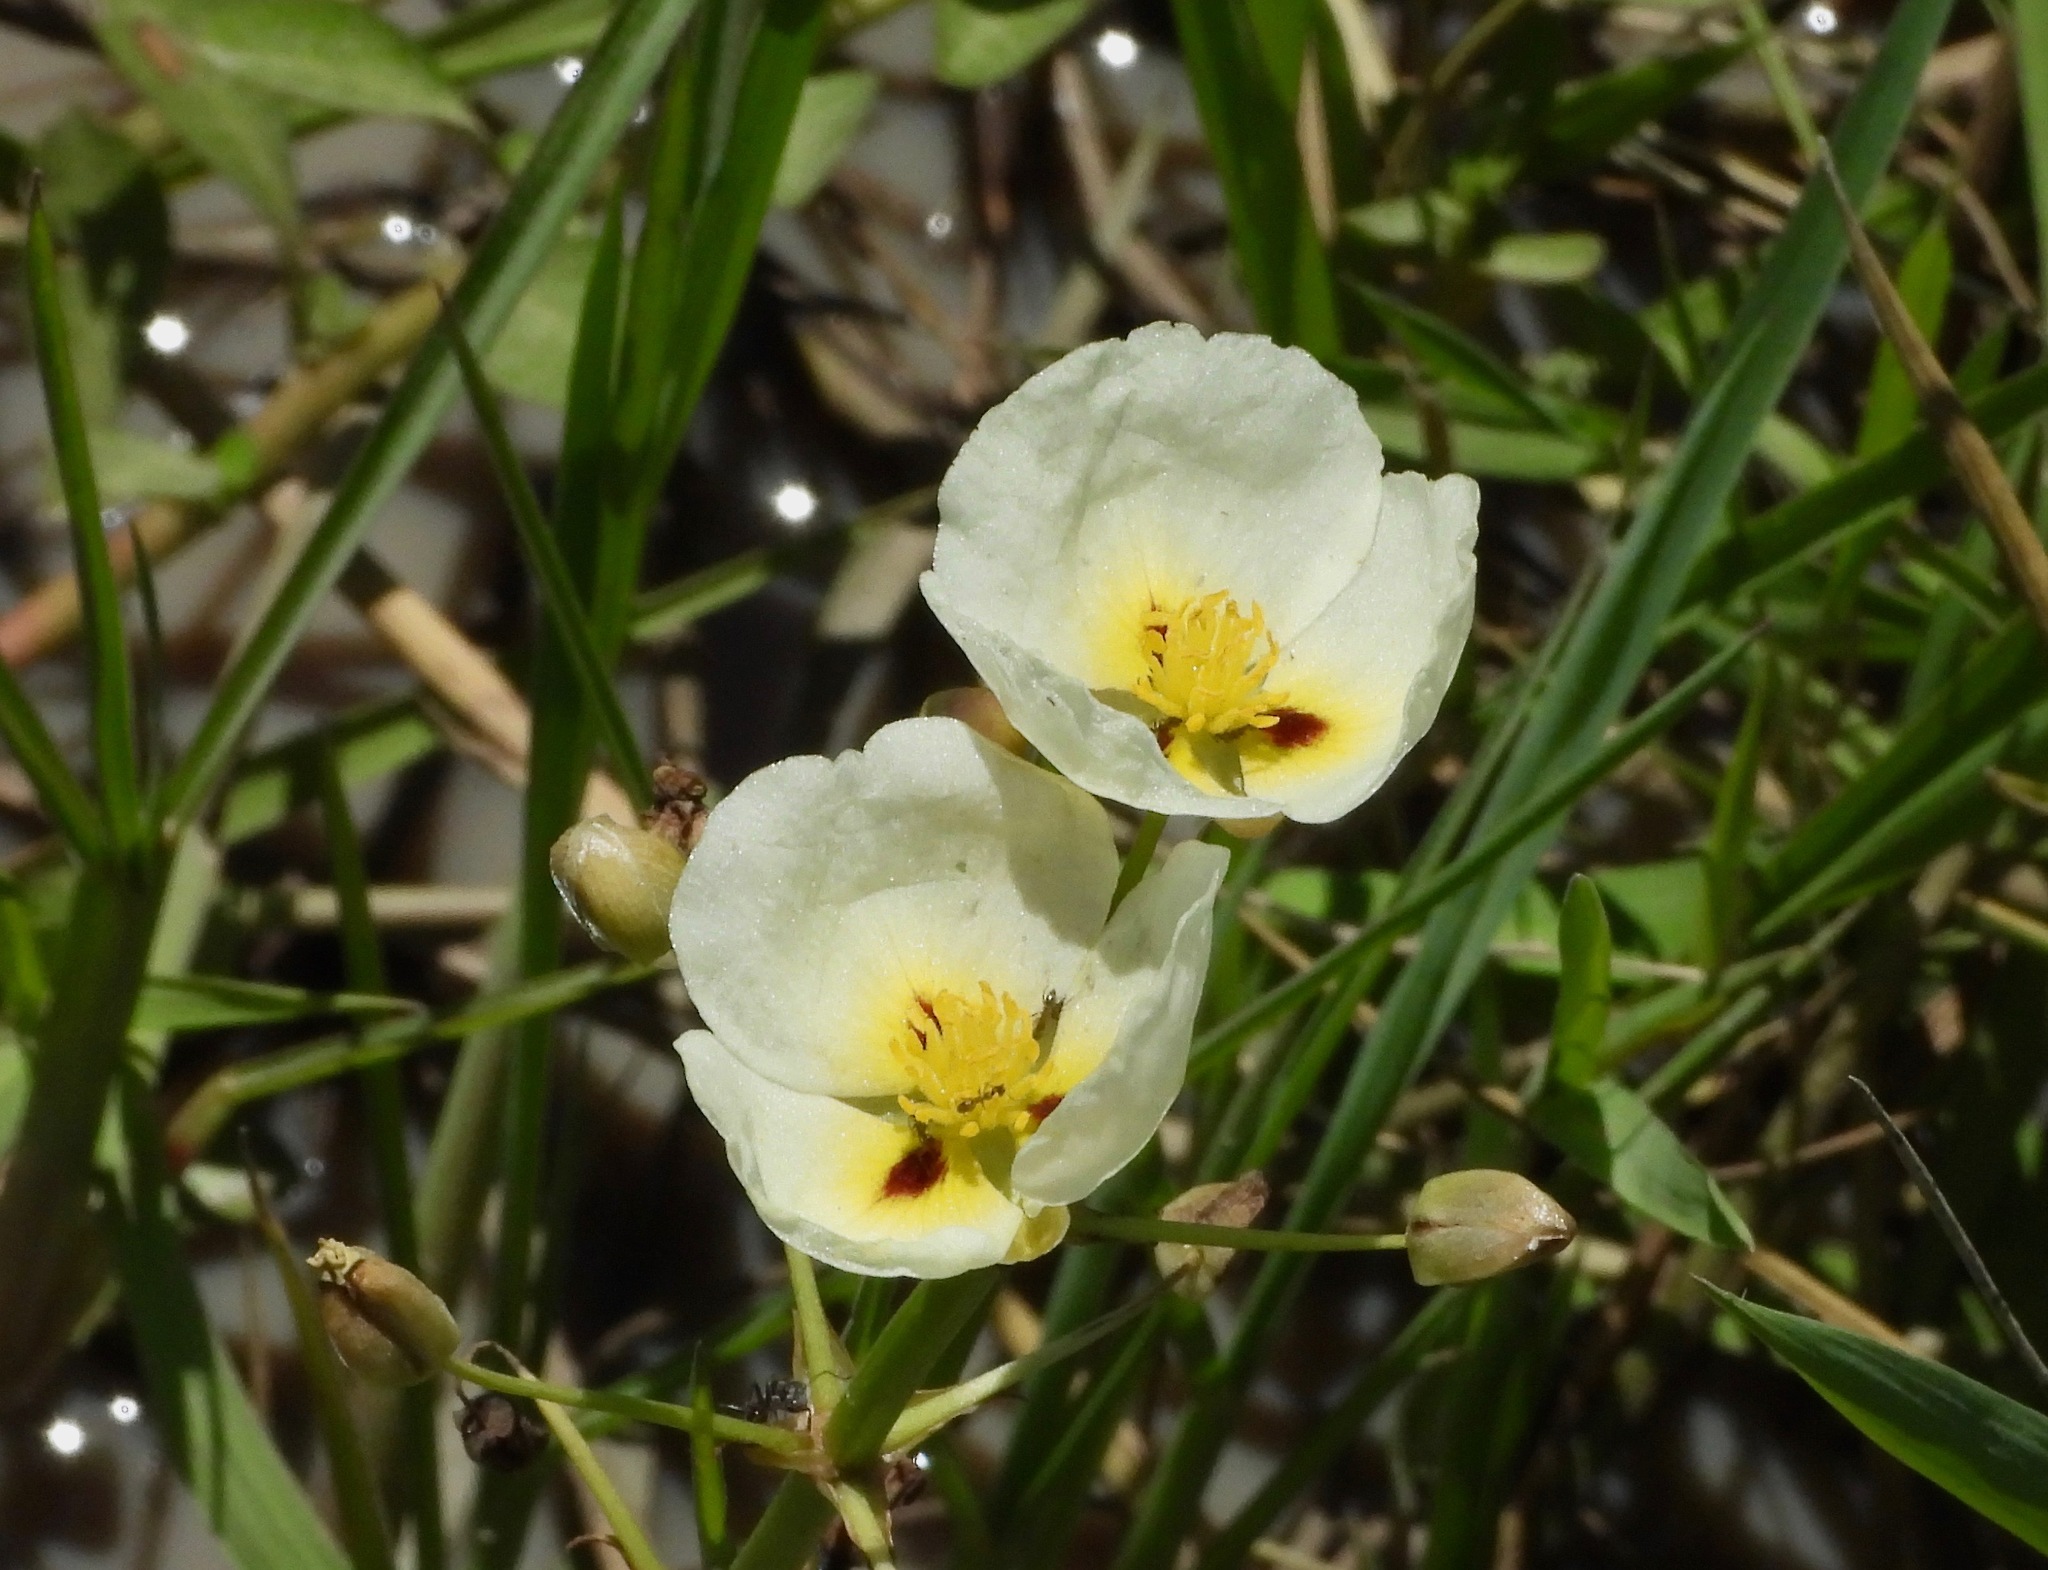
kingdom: Plantae
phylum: Tracheophyta
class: Liliopsida
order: Alismatales
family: Alismataceae
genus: Sagittaria
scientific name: Sagittaria montevidensis
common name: Giant arrowhead
